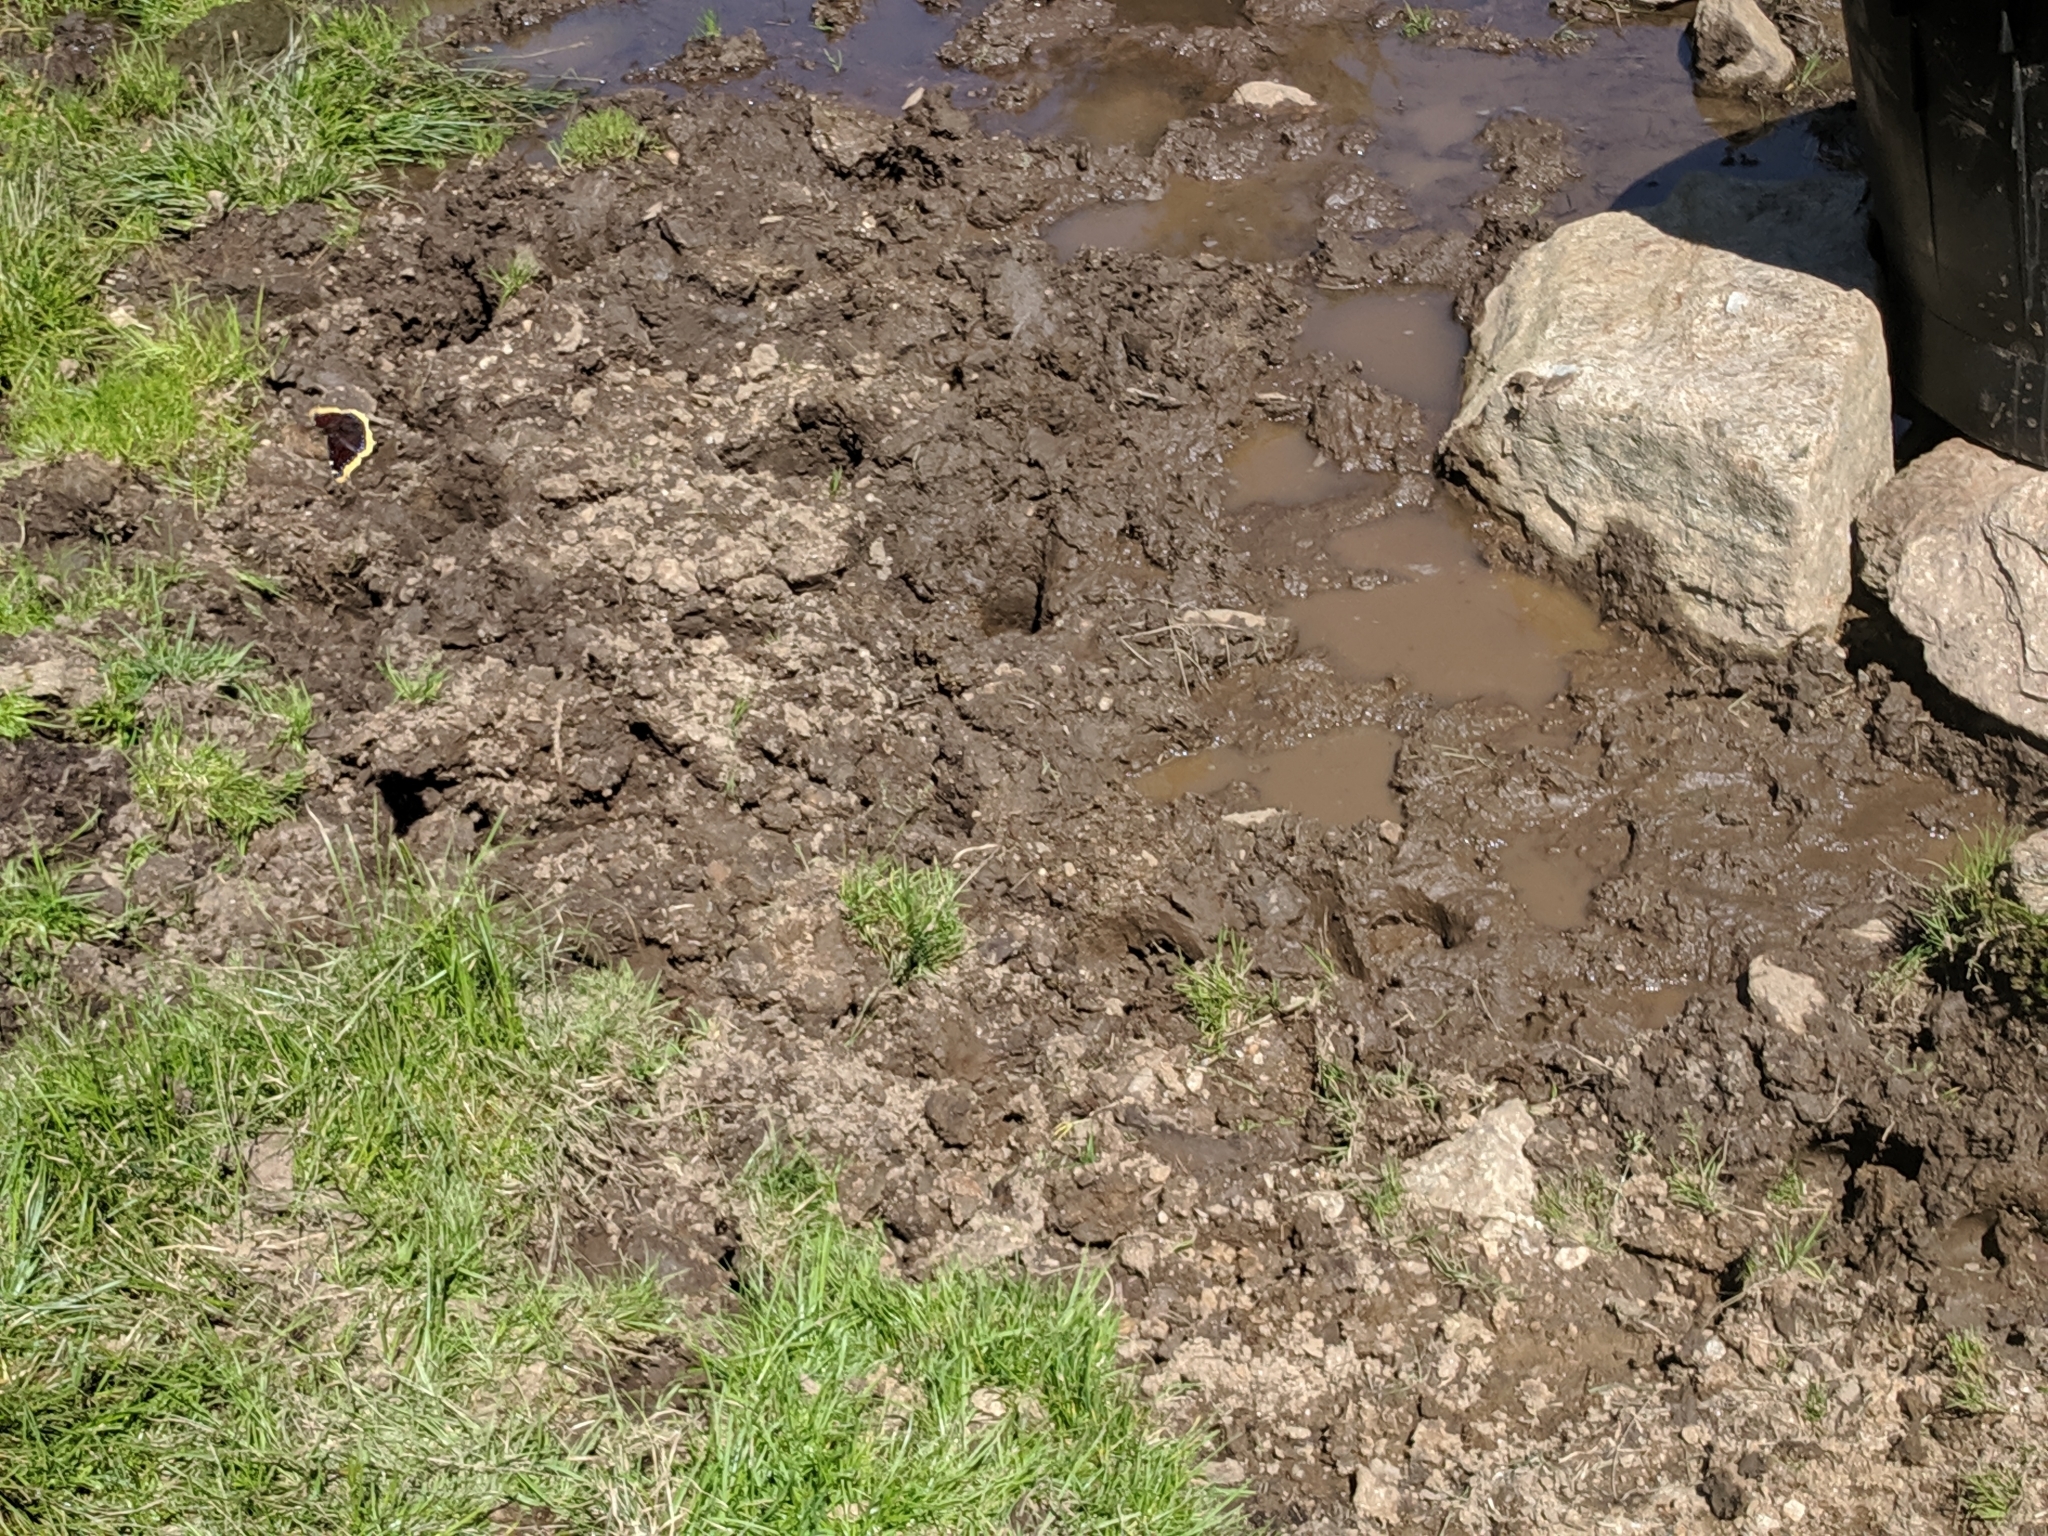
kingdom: Animalia
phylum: Arthropoda
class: Insecta
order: Lepidoptera
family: Nymphalidae
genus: Nymphalis
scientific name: Nymphalis antiopa
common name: Camberwell beauty
